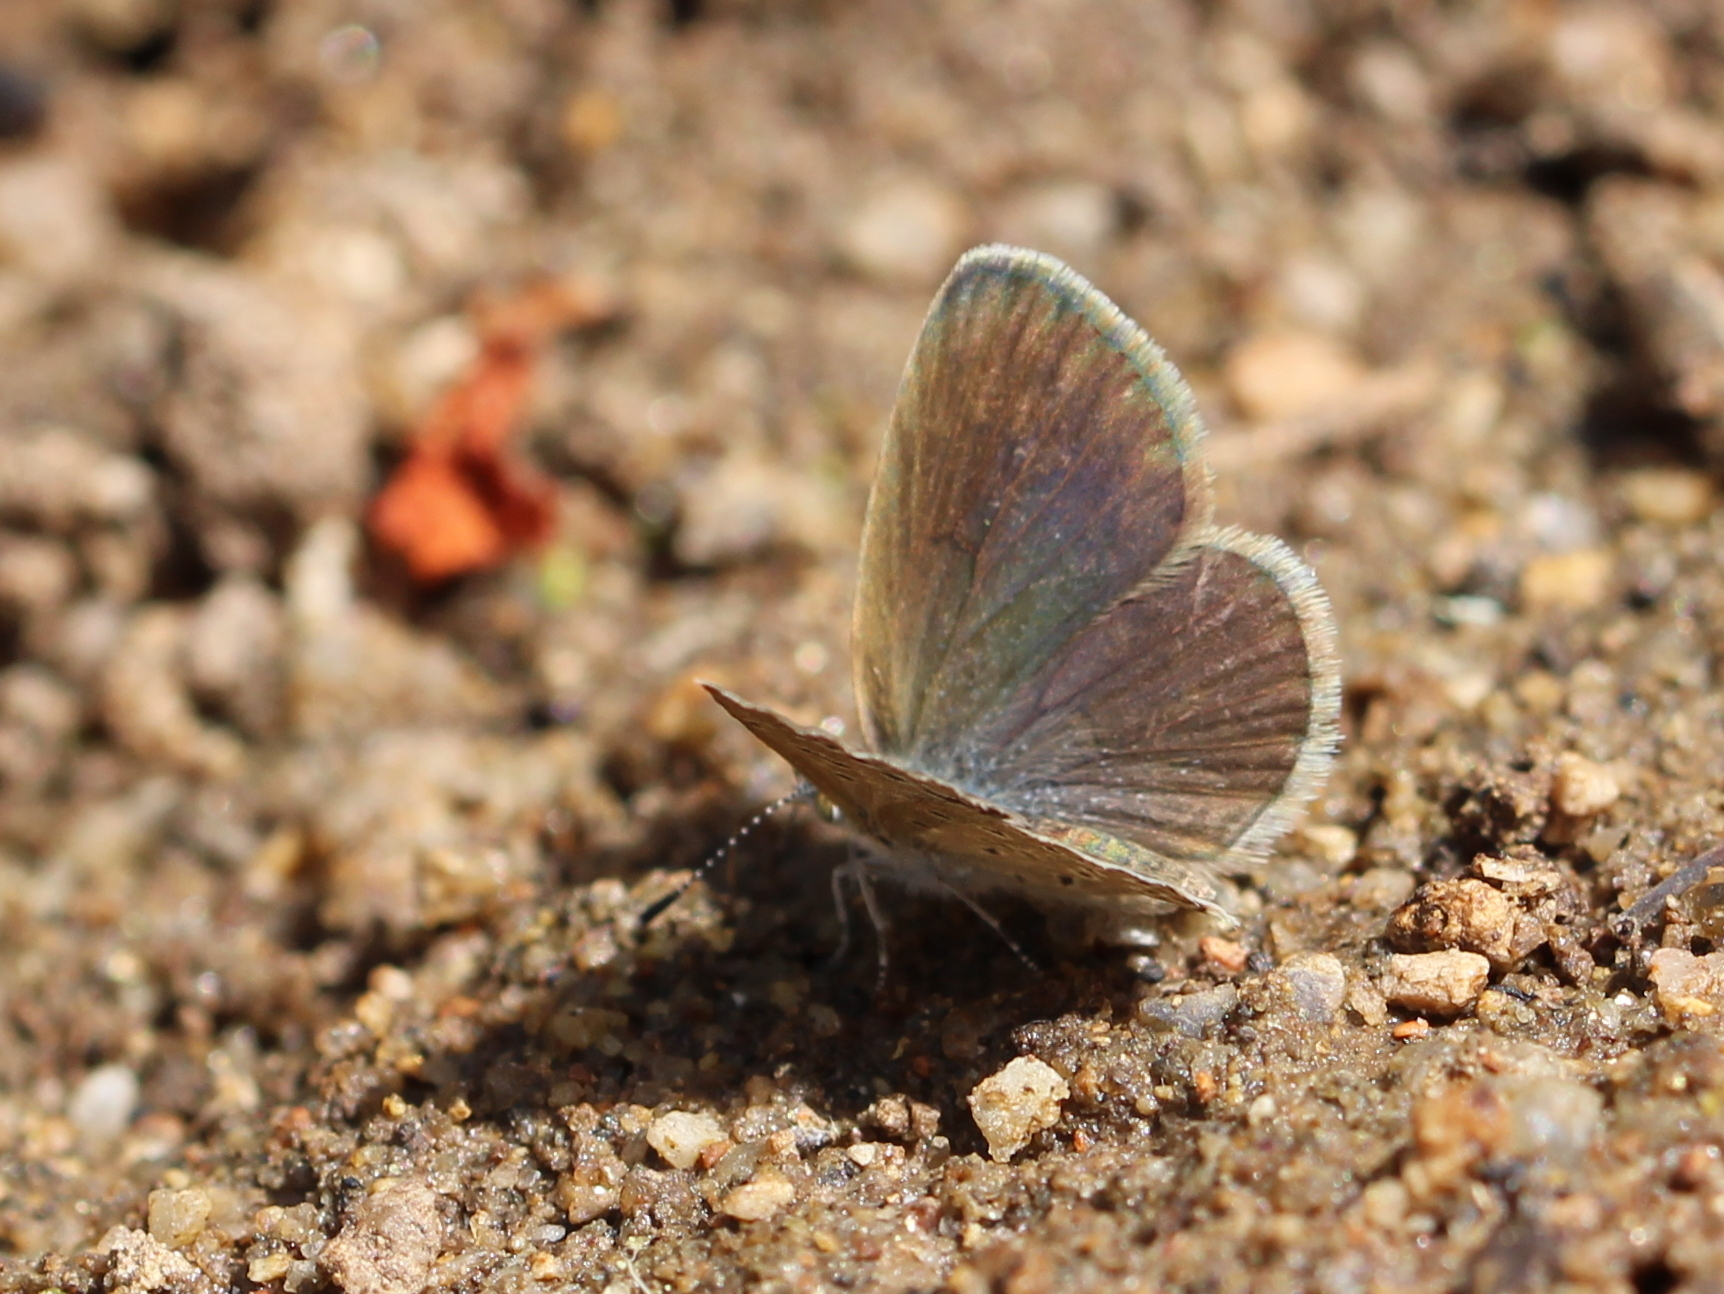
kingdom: Animalia
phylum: Arthropoda
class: Insecta
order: Lepidoptera
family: Lycaenidae
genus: Zizeeria
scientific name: Zizeeria karsandra
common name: Dark grass blue
